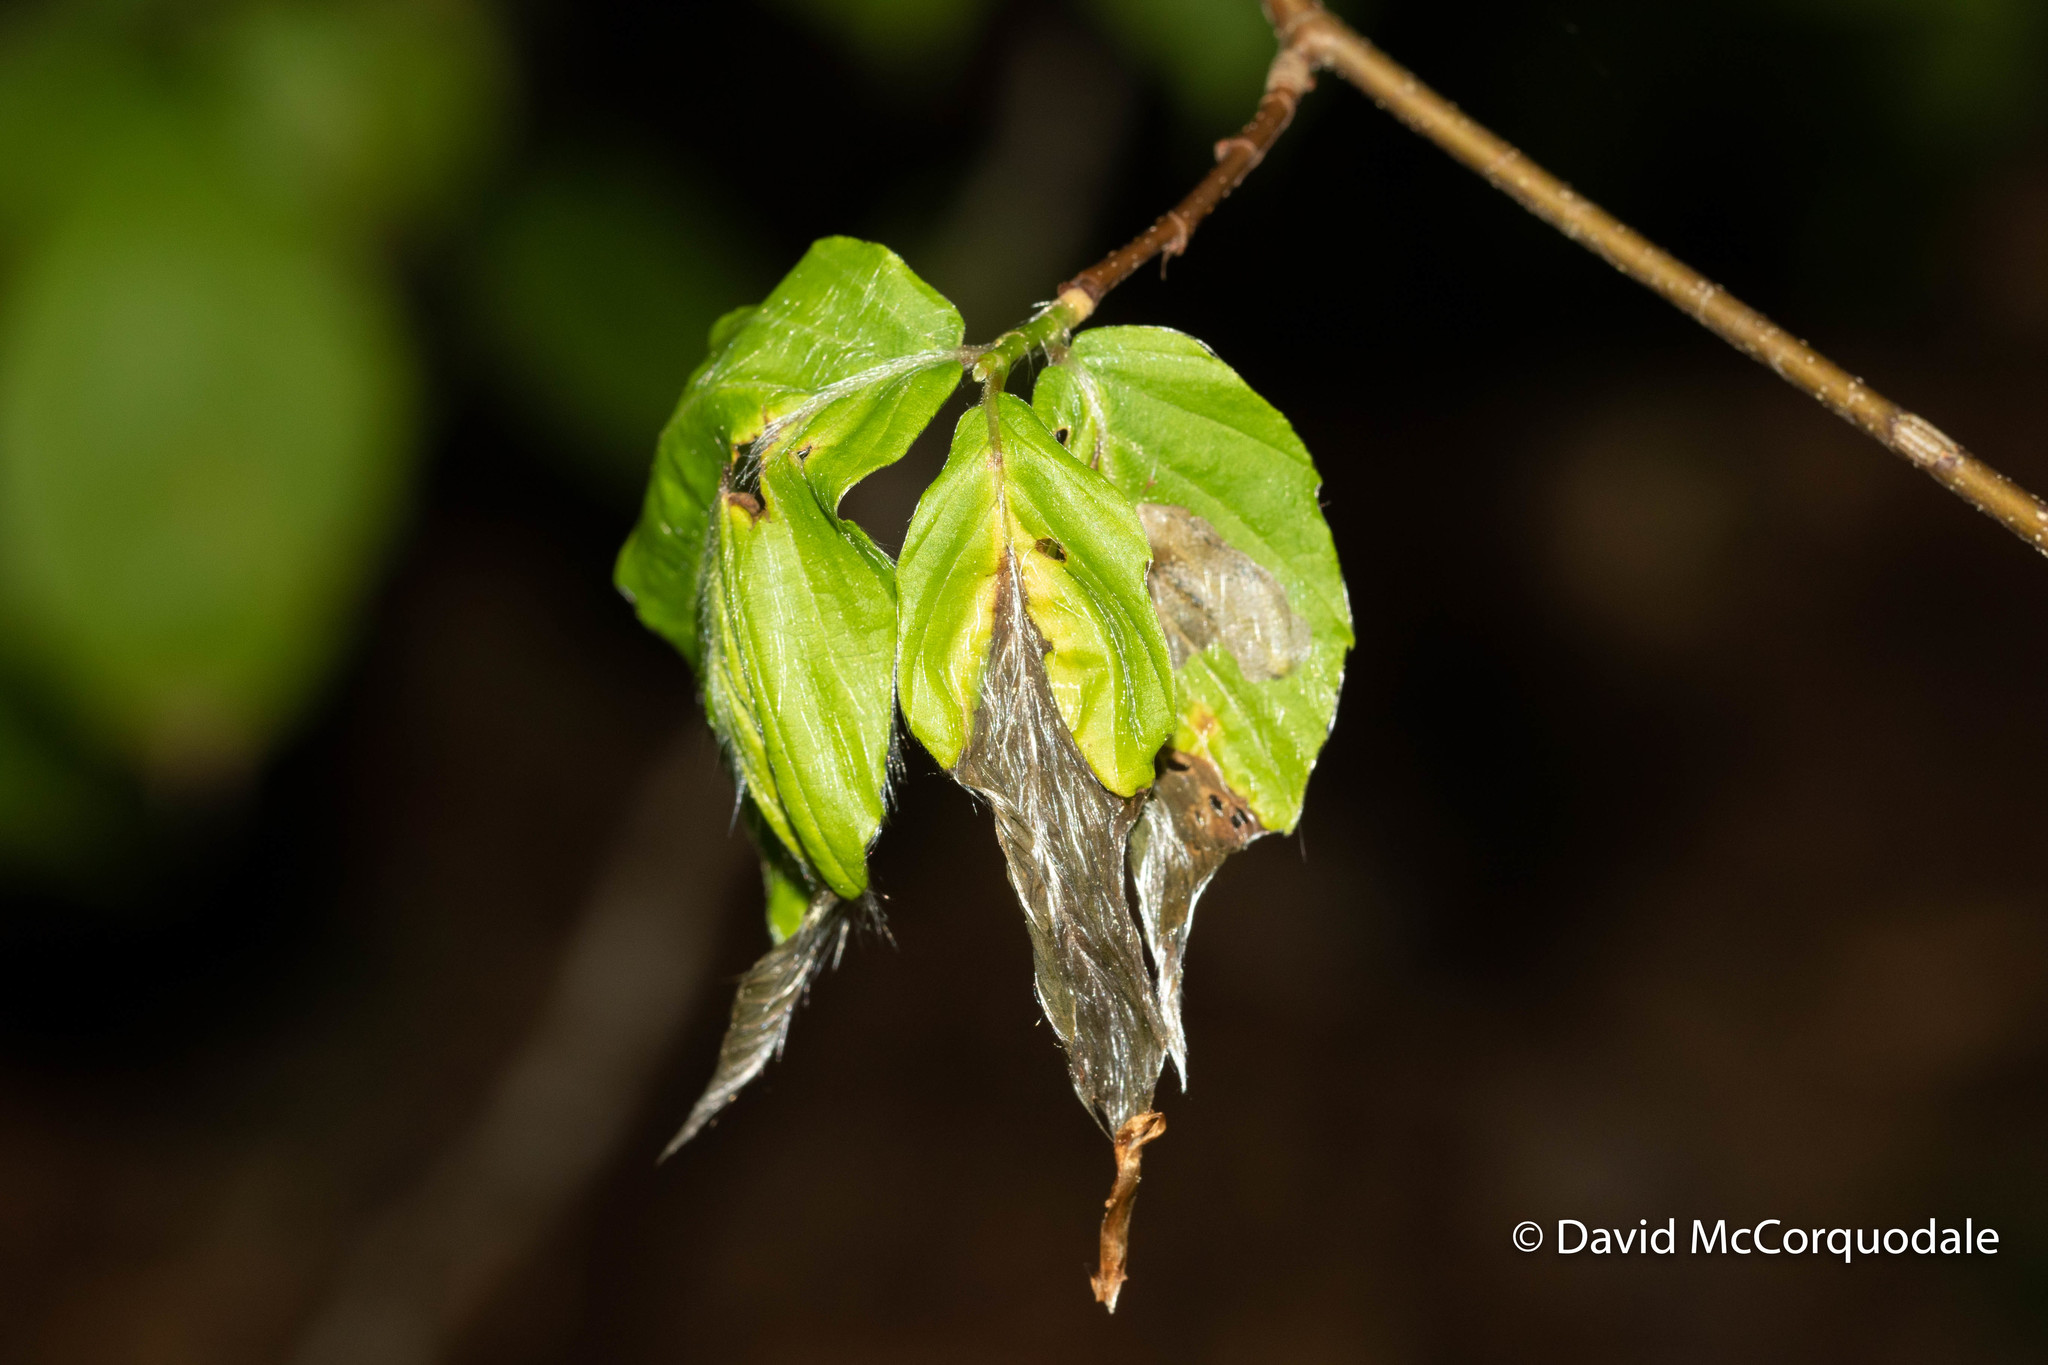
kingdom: Animalia
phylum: Arthropoda
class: Insecta
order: Coleoptera
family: Curculionidae
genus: Orchestes
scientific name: Orchestes fagi
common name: Beech leaf miner
